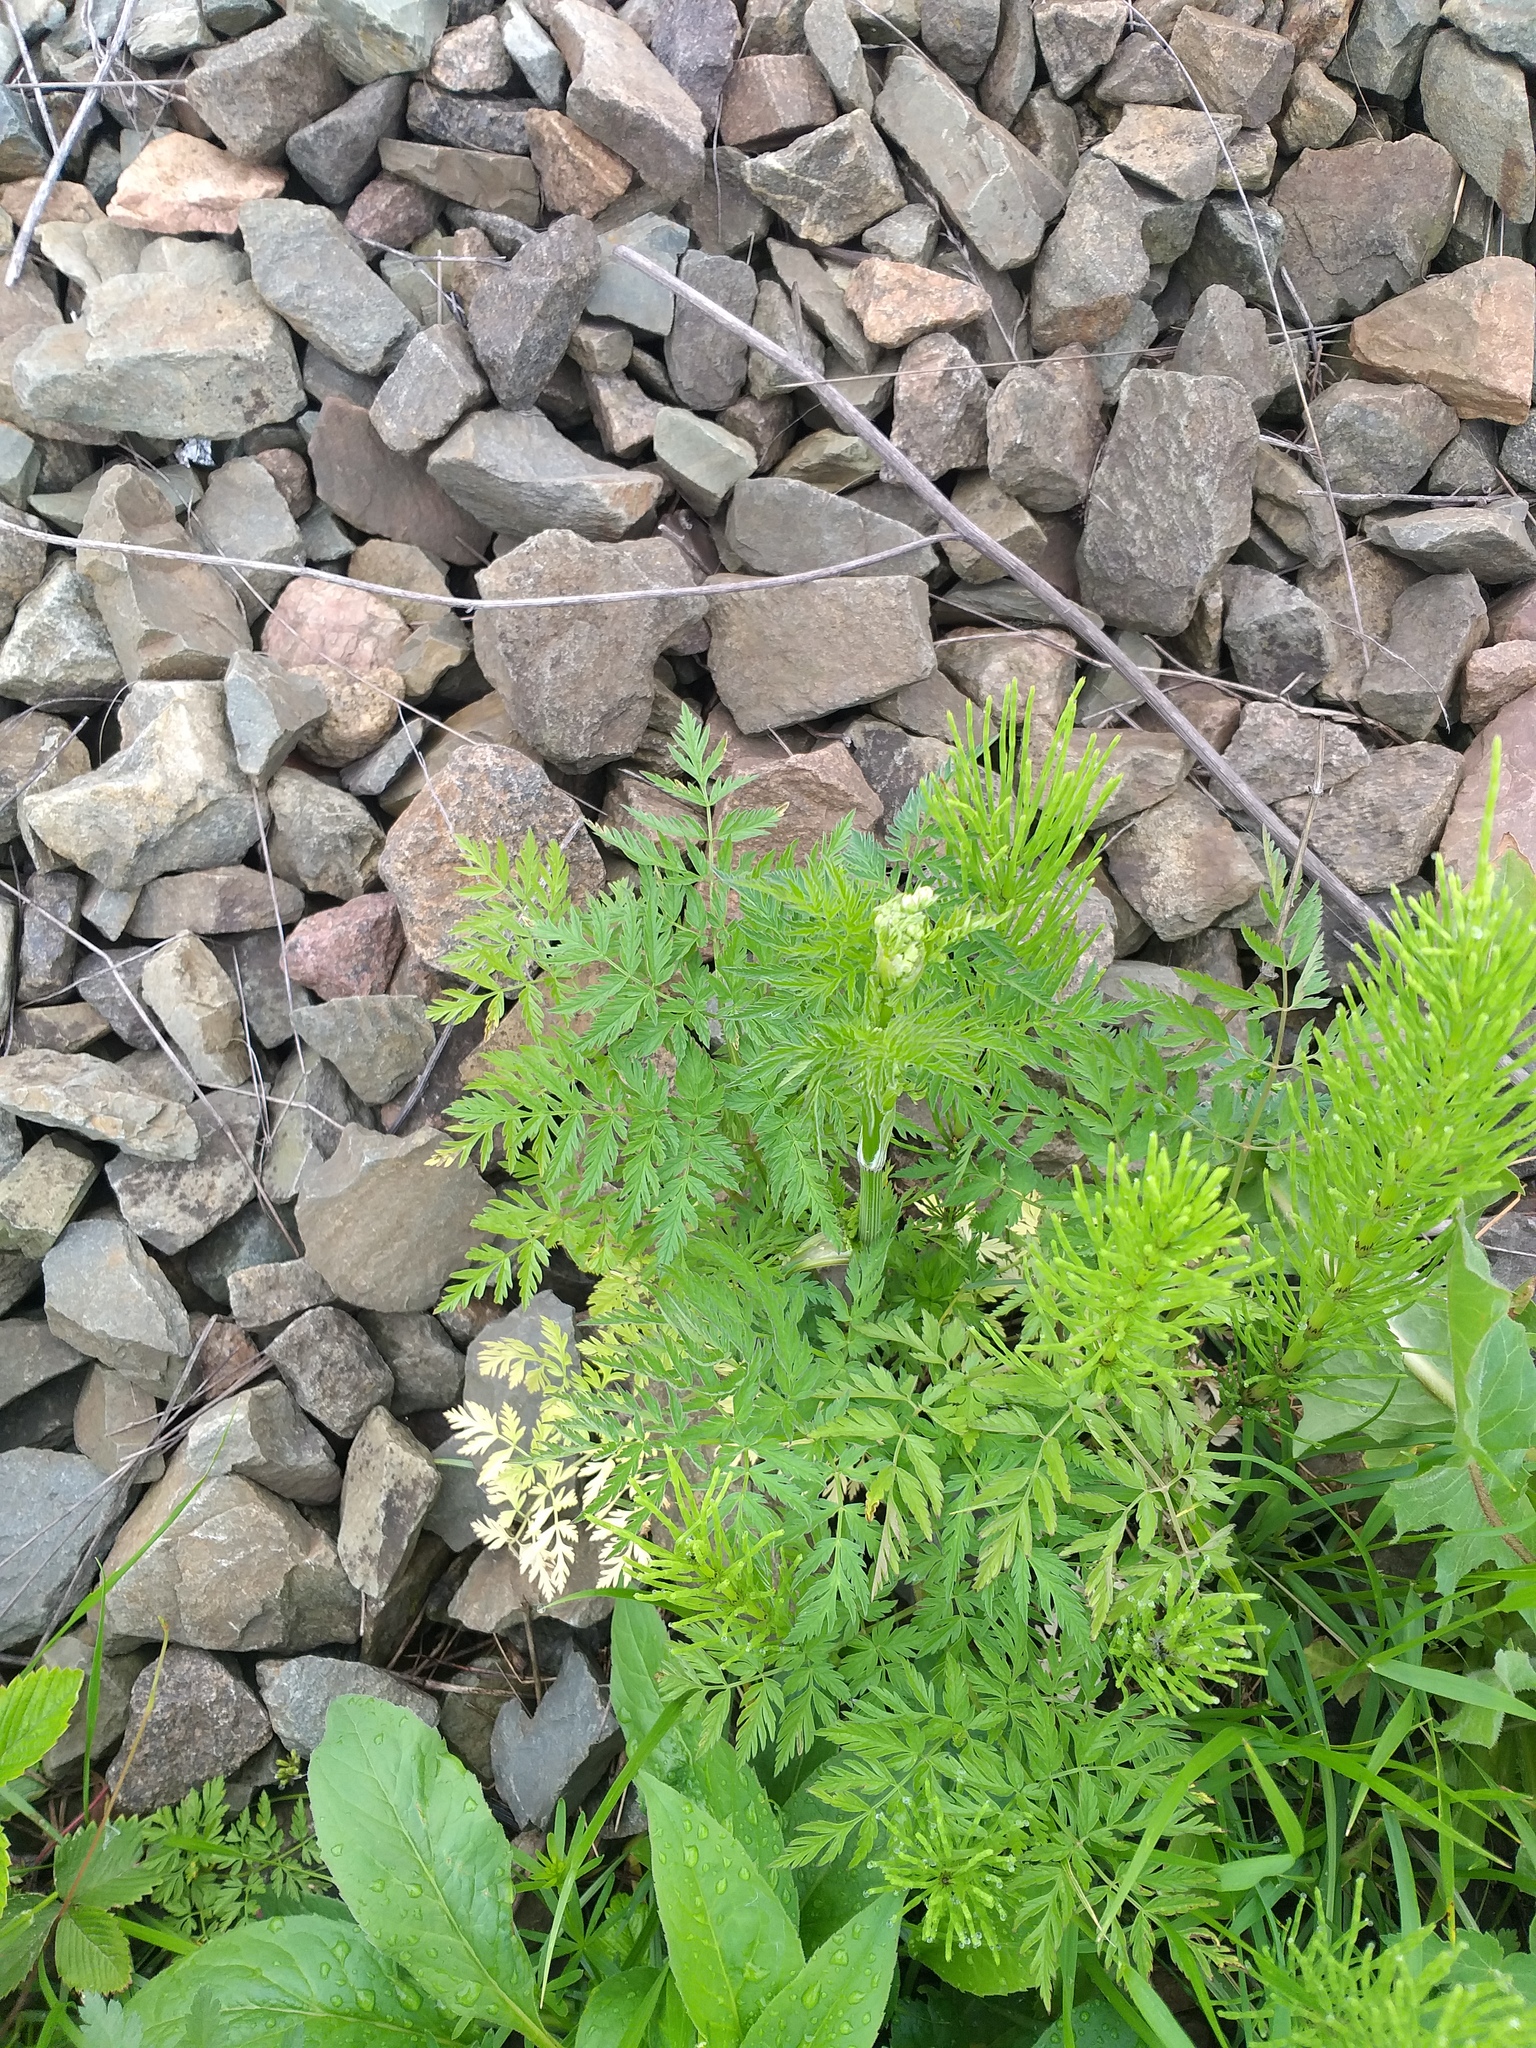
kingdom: Plantae
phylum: Tracheophyta
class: Magnoliopsida
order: Apiales
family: Apiaceae
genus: Anthriscus
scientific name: Anthriscus sylvestris
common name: Cow parsley
